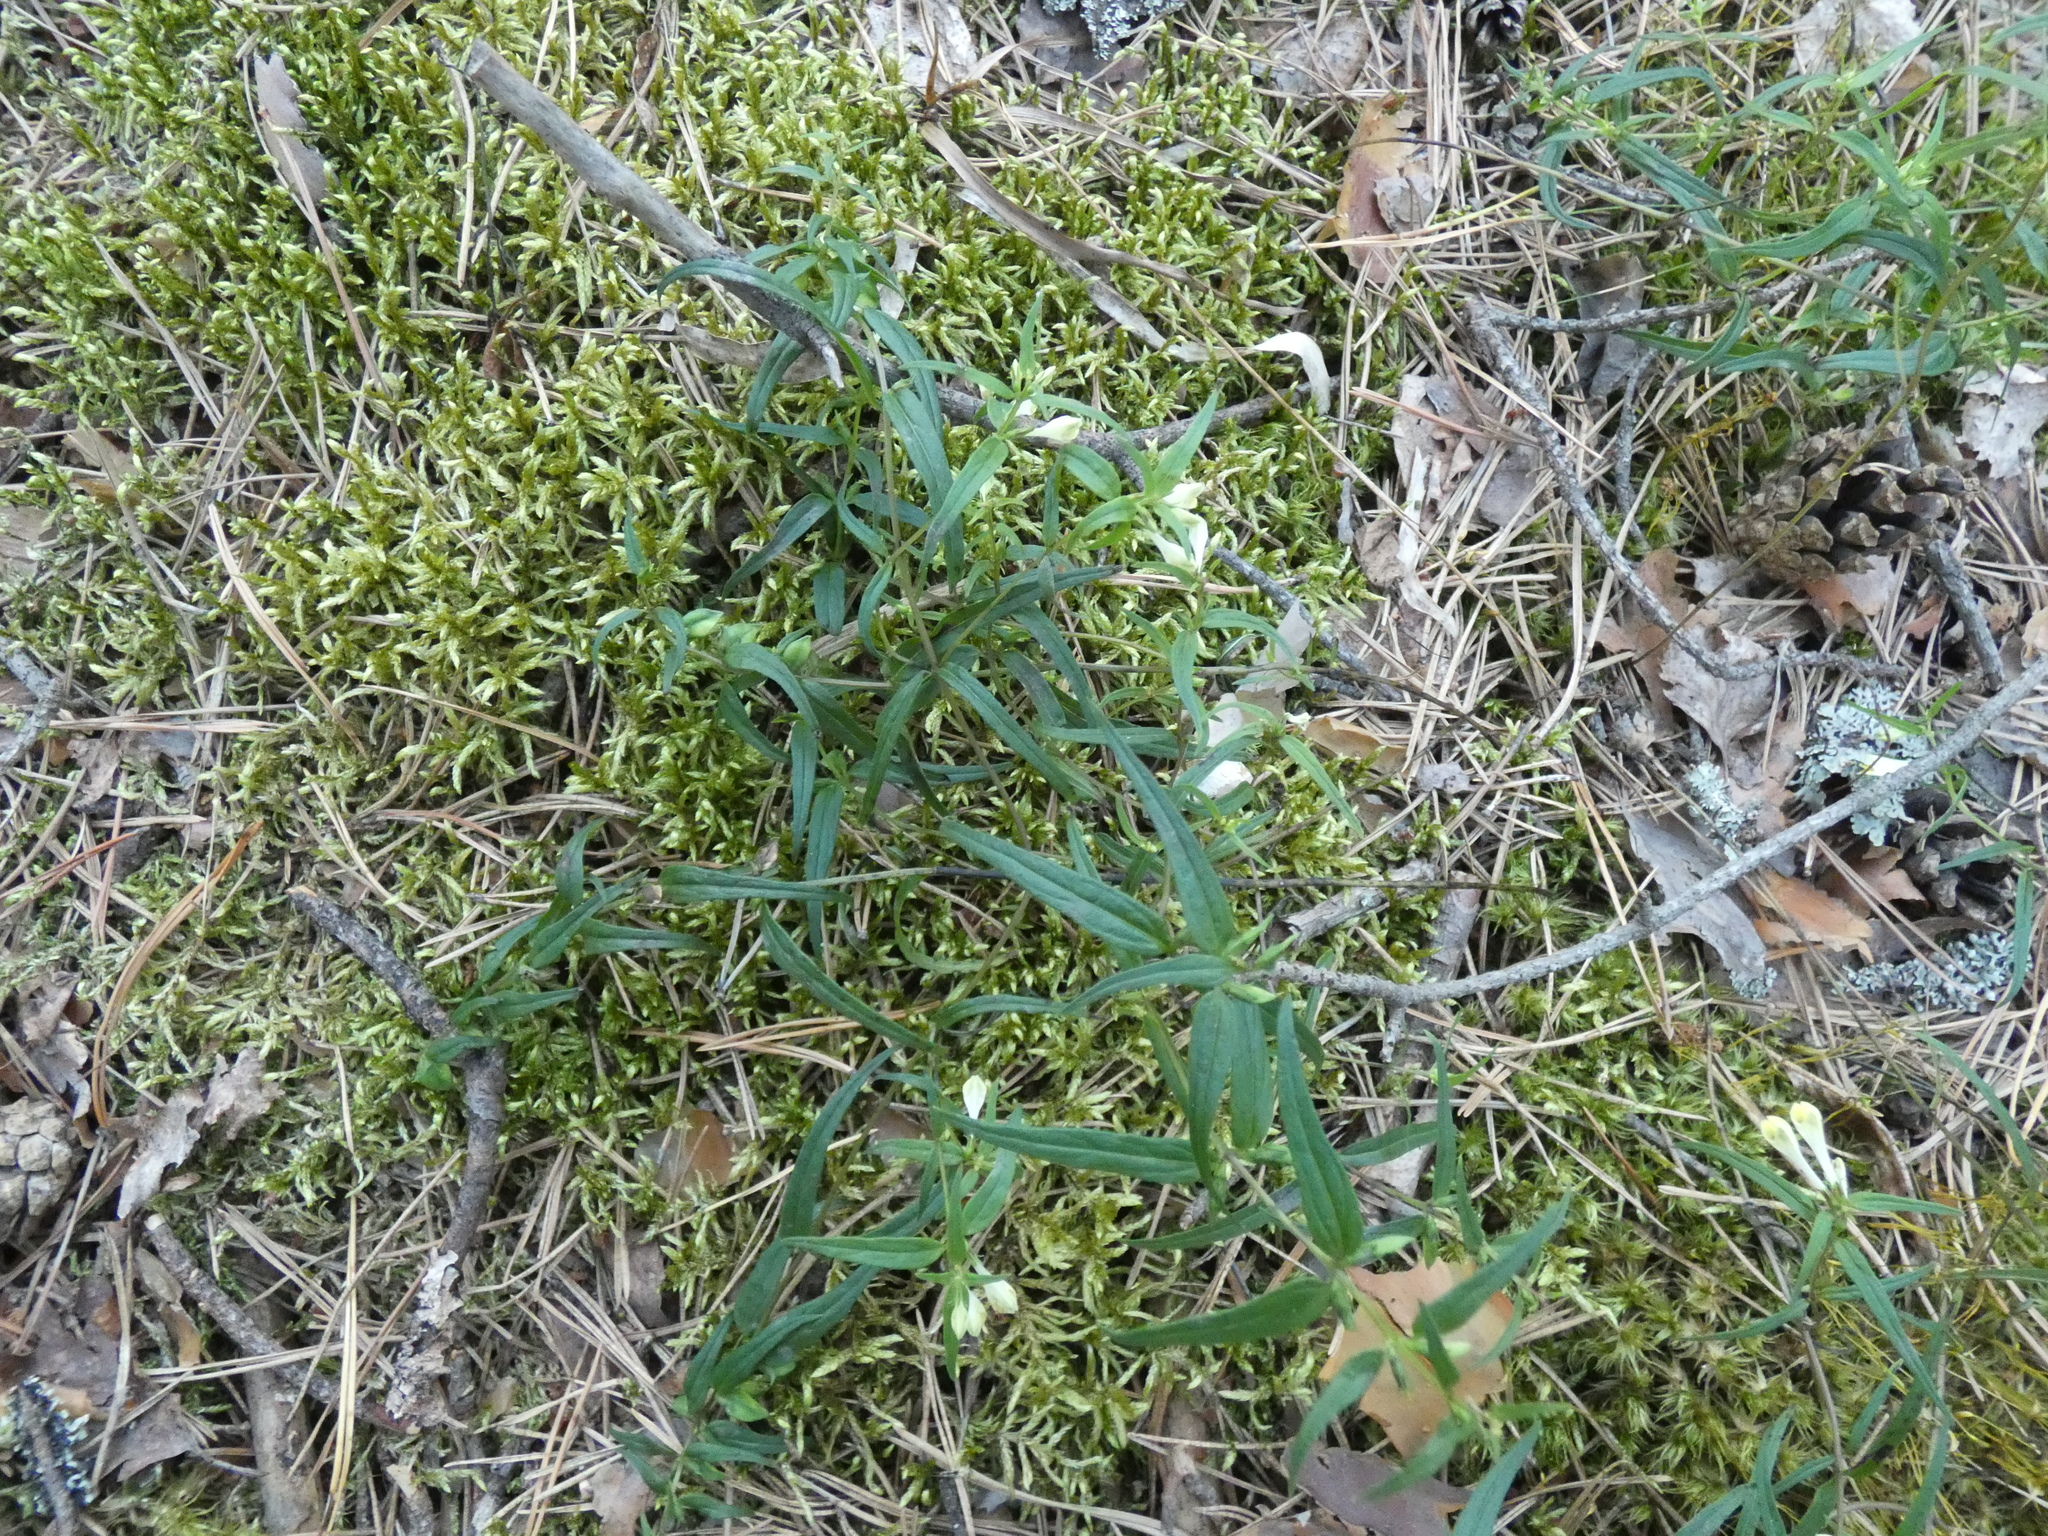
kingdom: Plantae
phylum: Tracheophyta
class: Magnoliopsida
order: Lamiales
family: Orobanchaceae
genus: Melampyrum
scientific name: Melampyrum pratense
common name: Common cow-wheat
